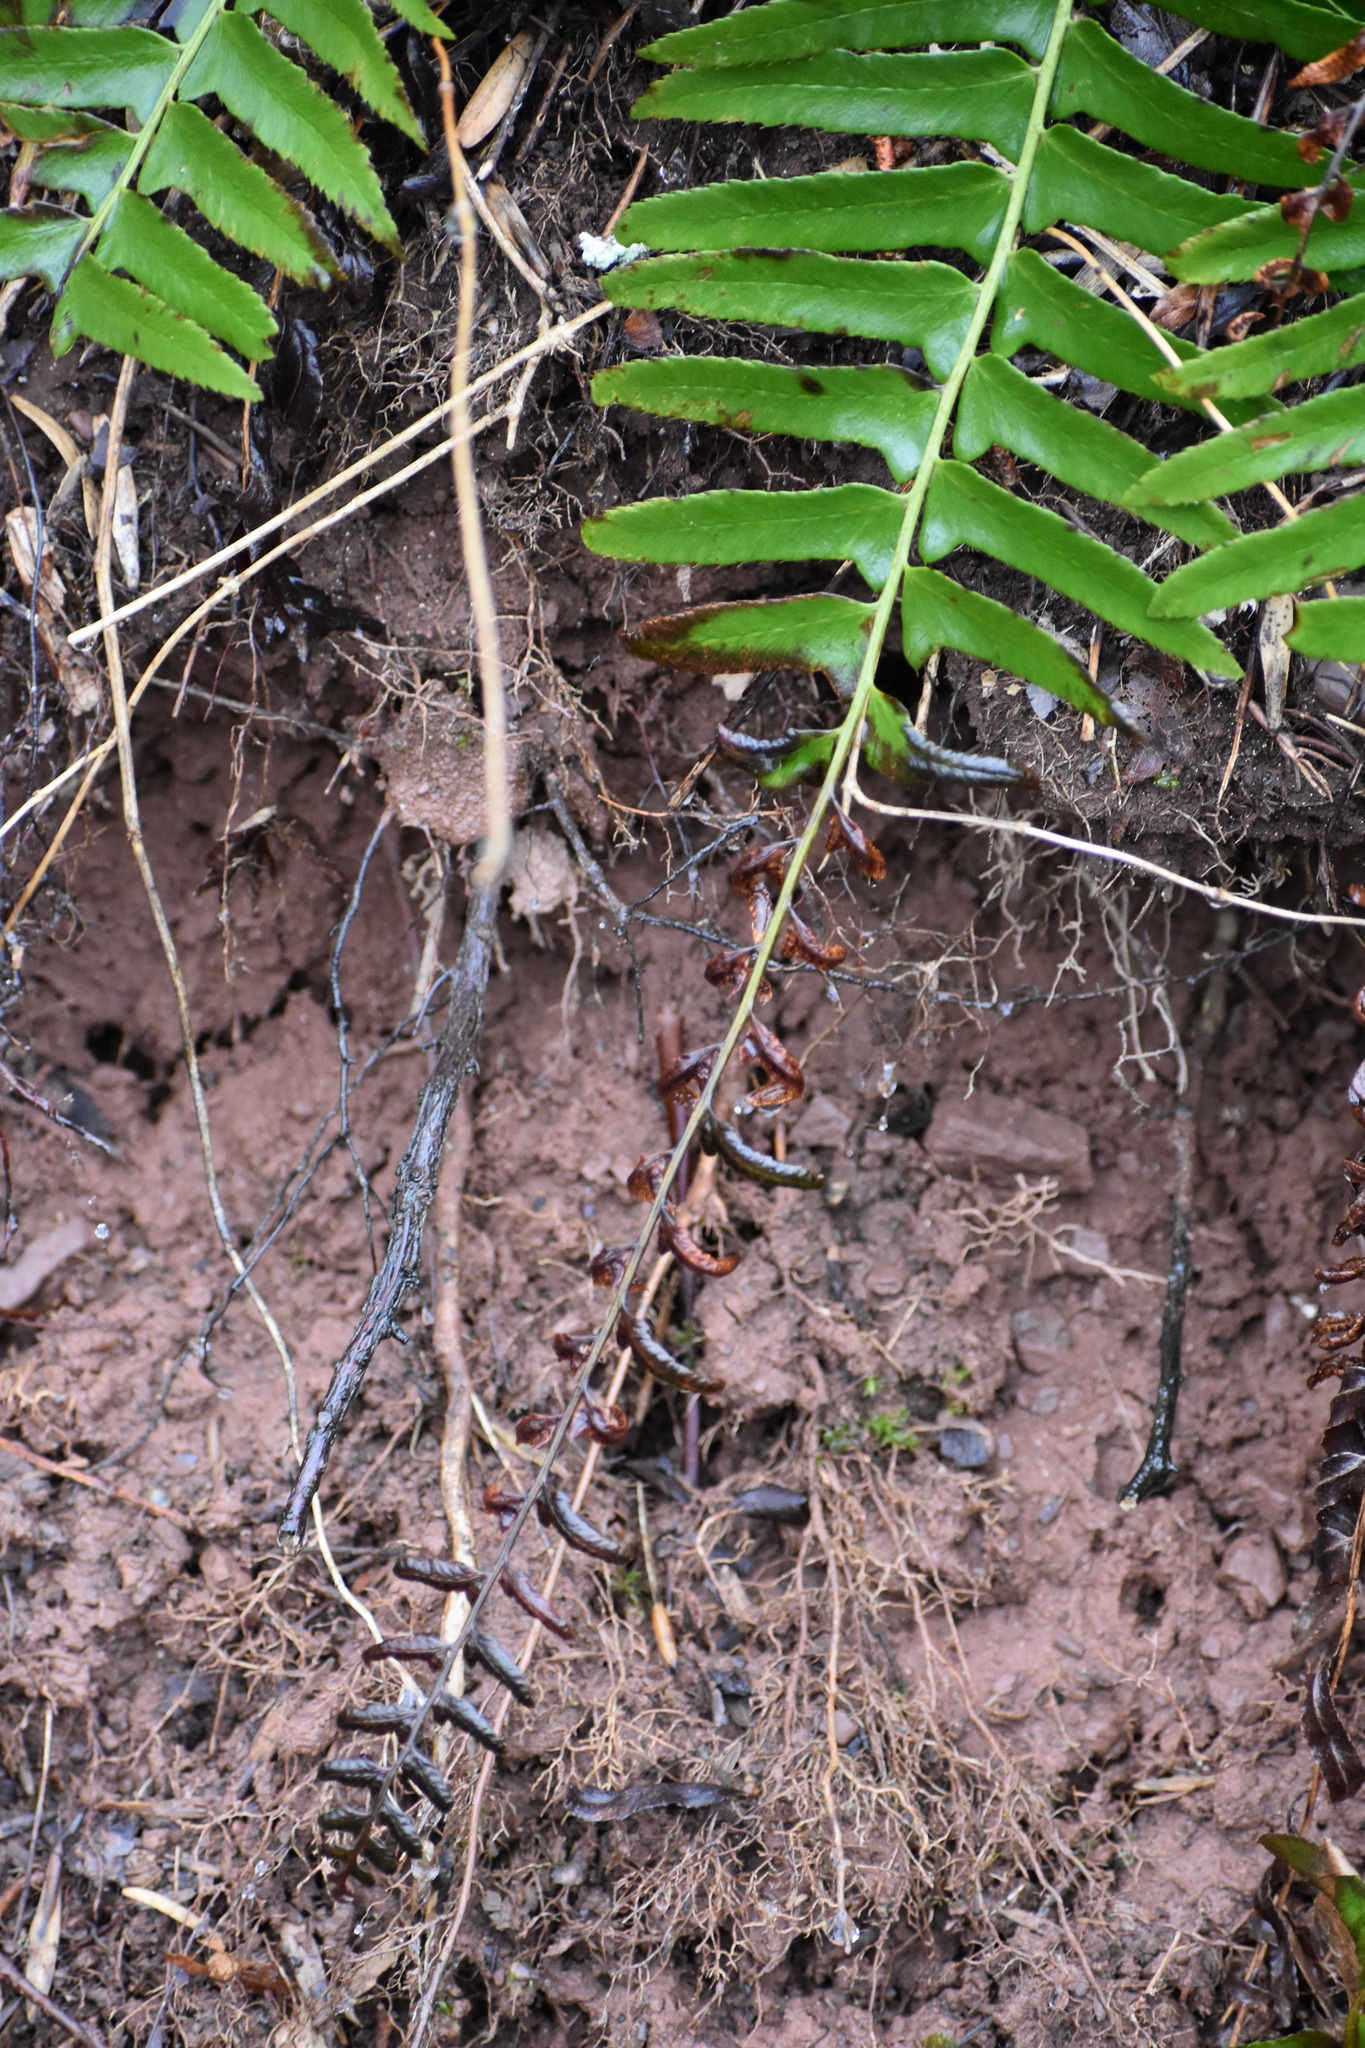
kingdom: Plantae
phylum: Tracheophyta
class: Polypodiopsida
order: Polypodiales
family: Dryopteridaceae
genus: Polystichum
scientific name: Polystichum acrostichoides
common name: Christmas fern
